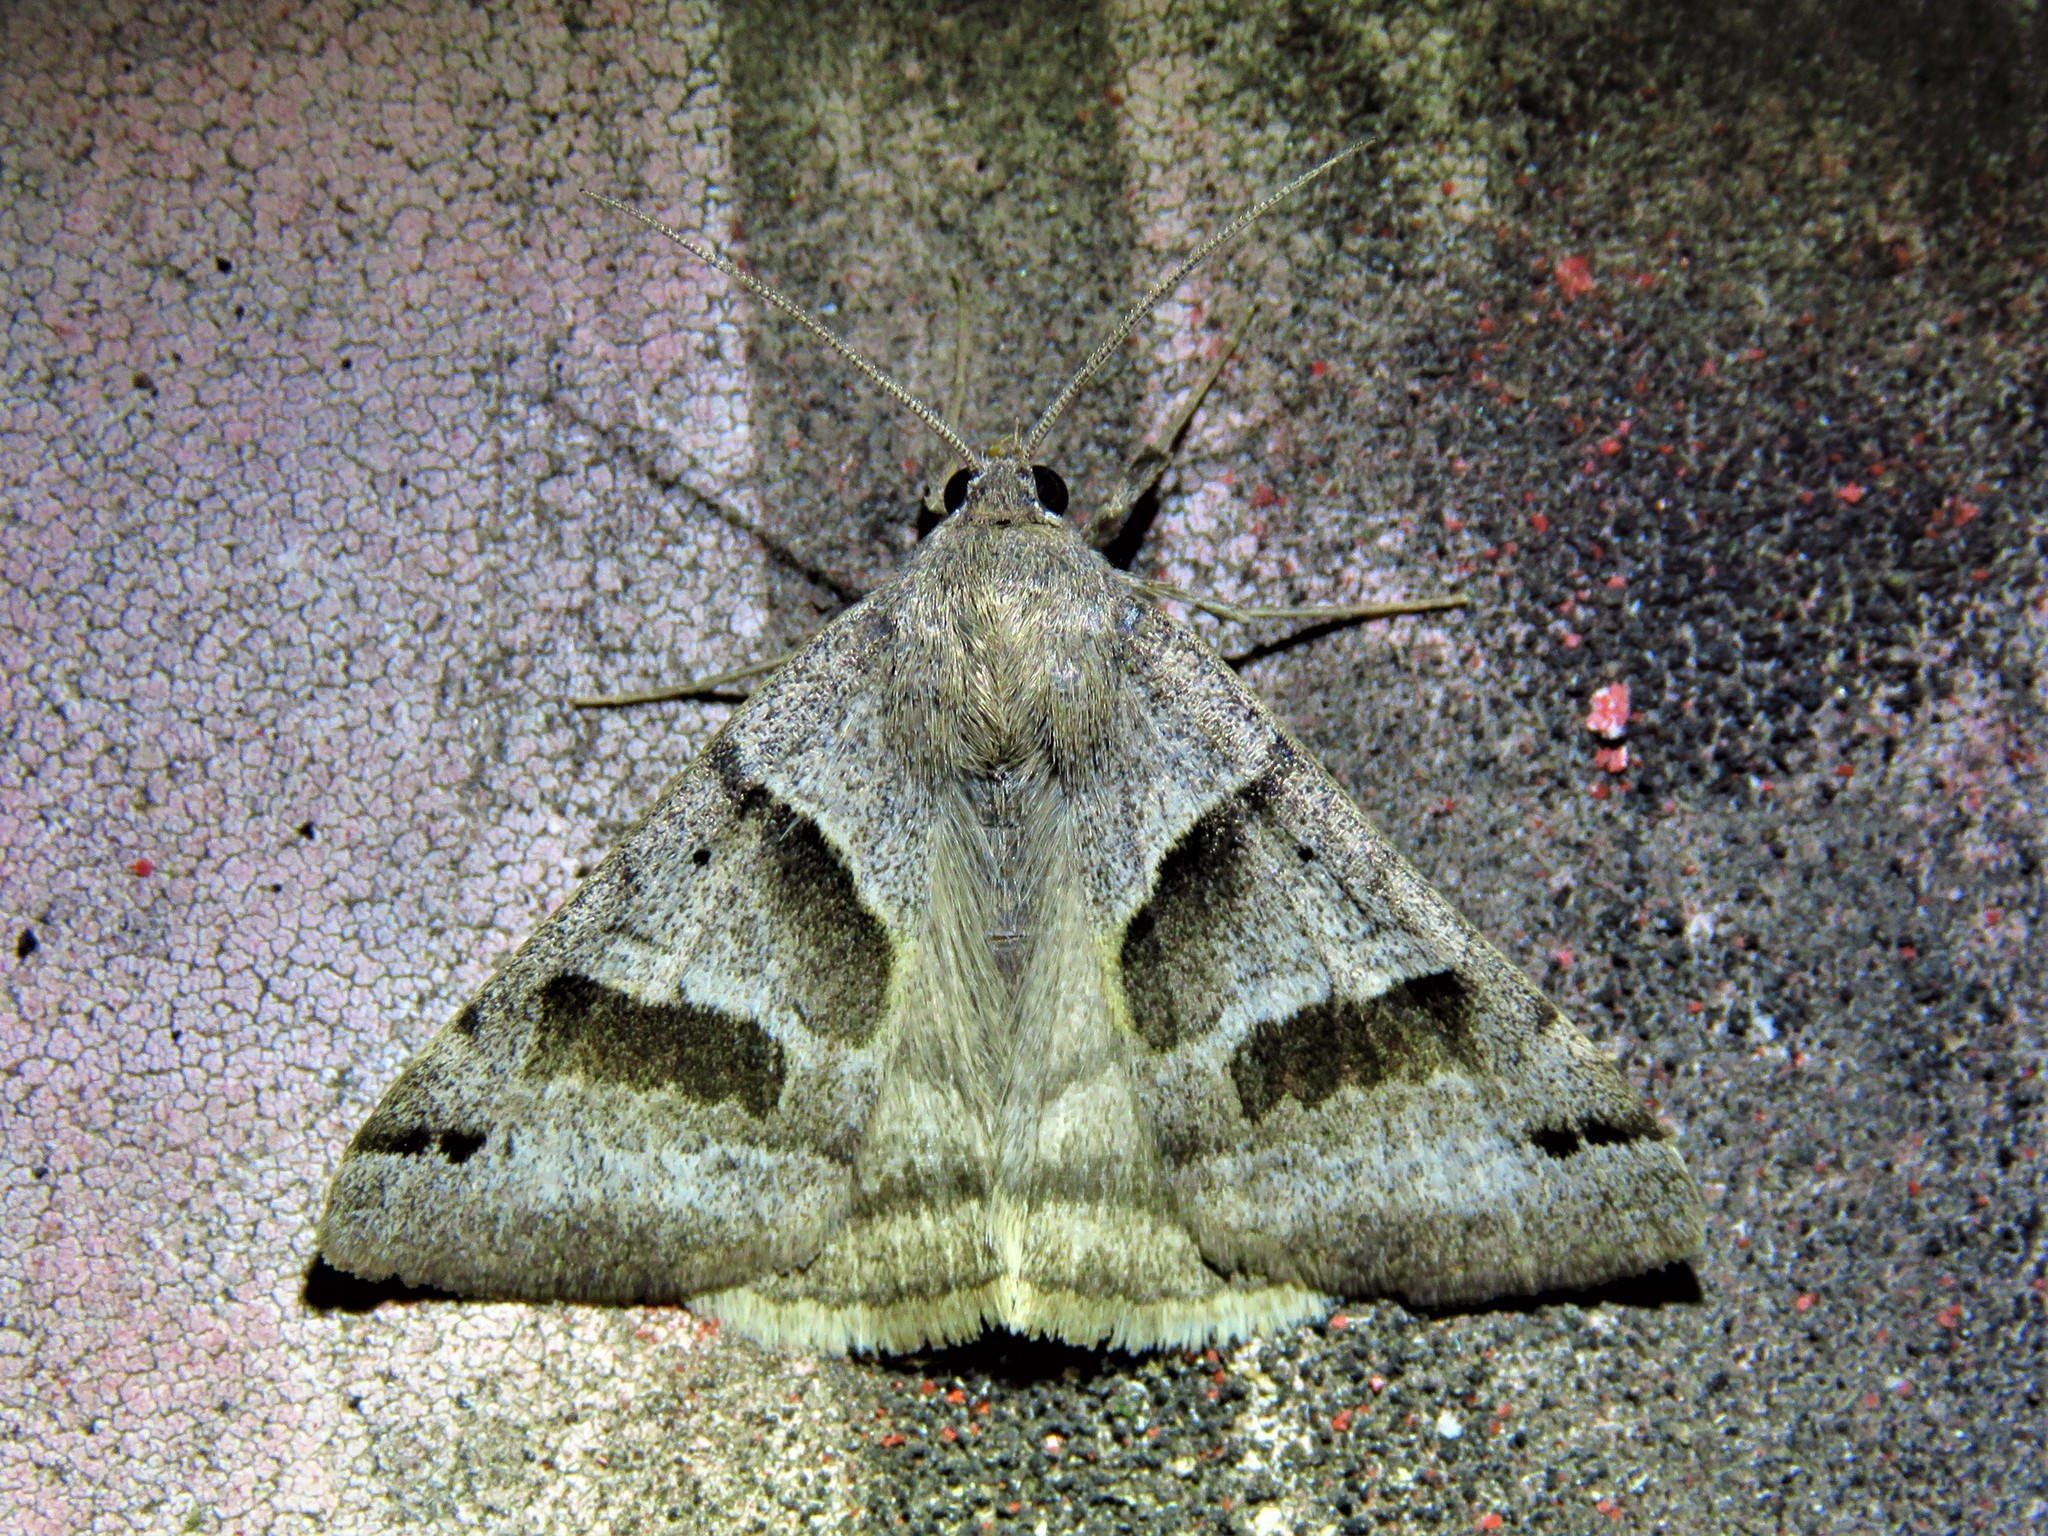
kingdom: Animalia
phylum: Arthropoda
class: Insecta
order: Lepidoptera
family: Erebidae
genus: Caenurgina
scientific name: Caenurgina erechtea
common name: Forage looper moth
